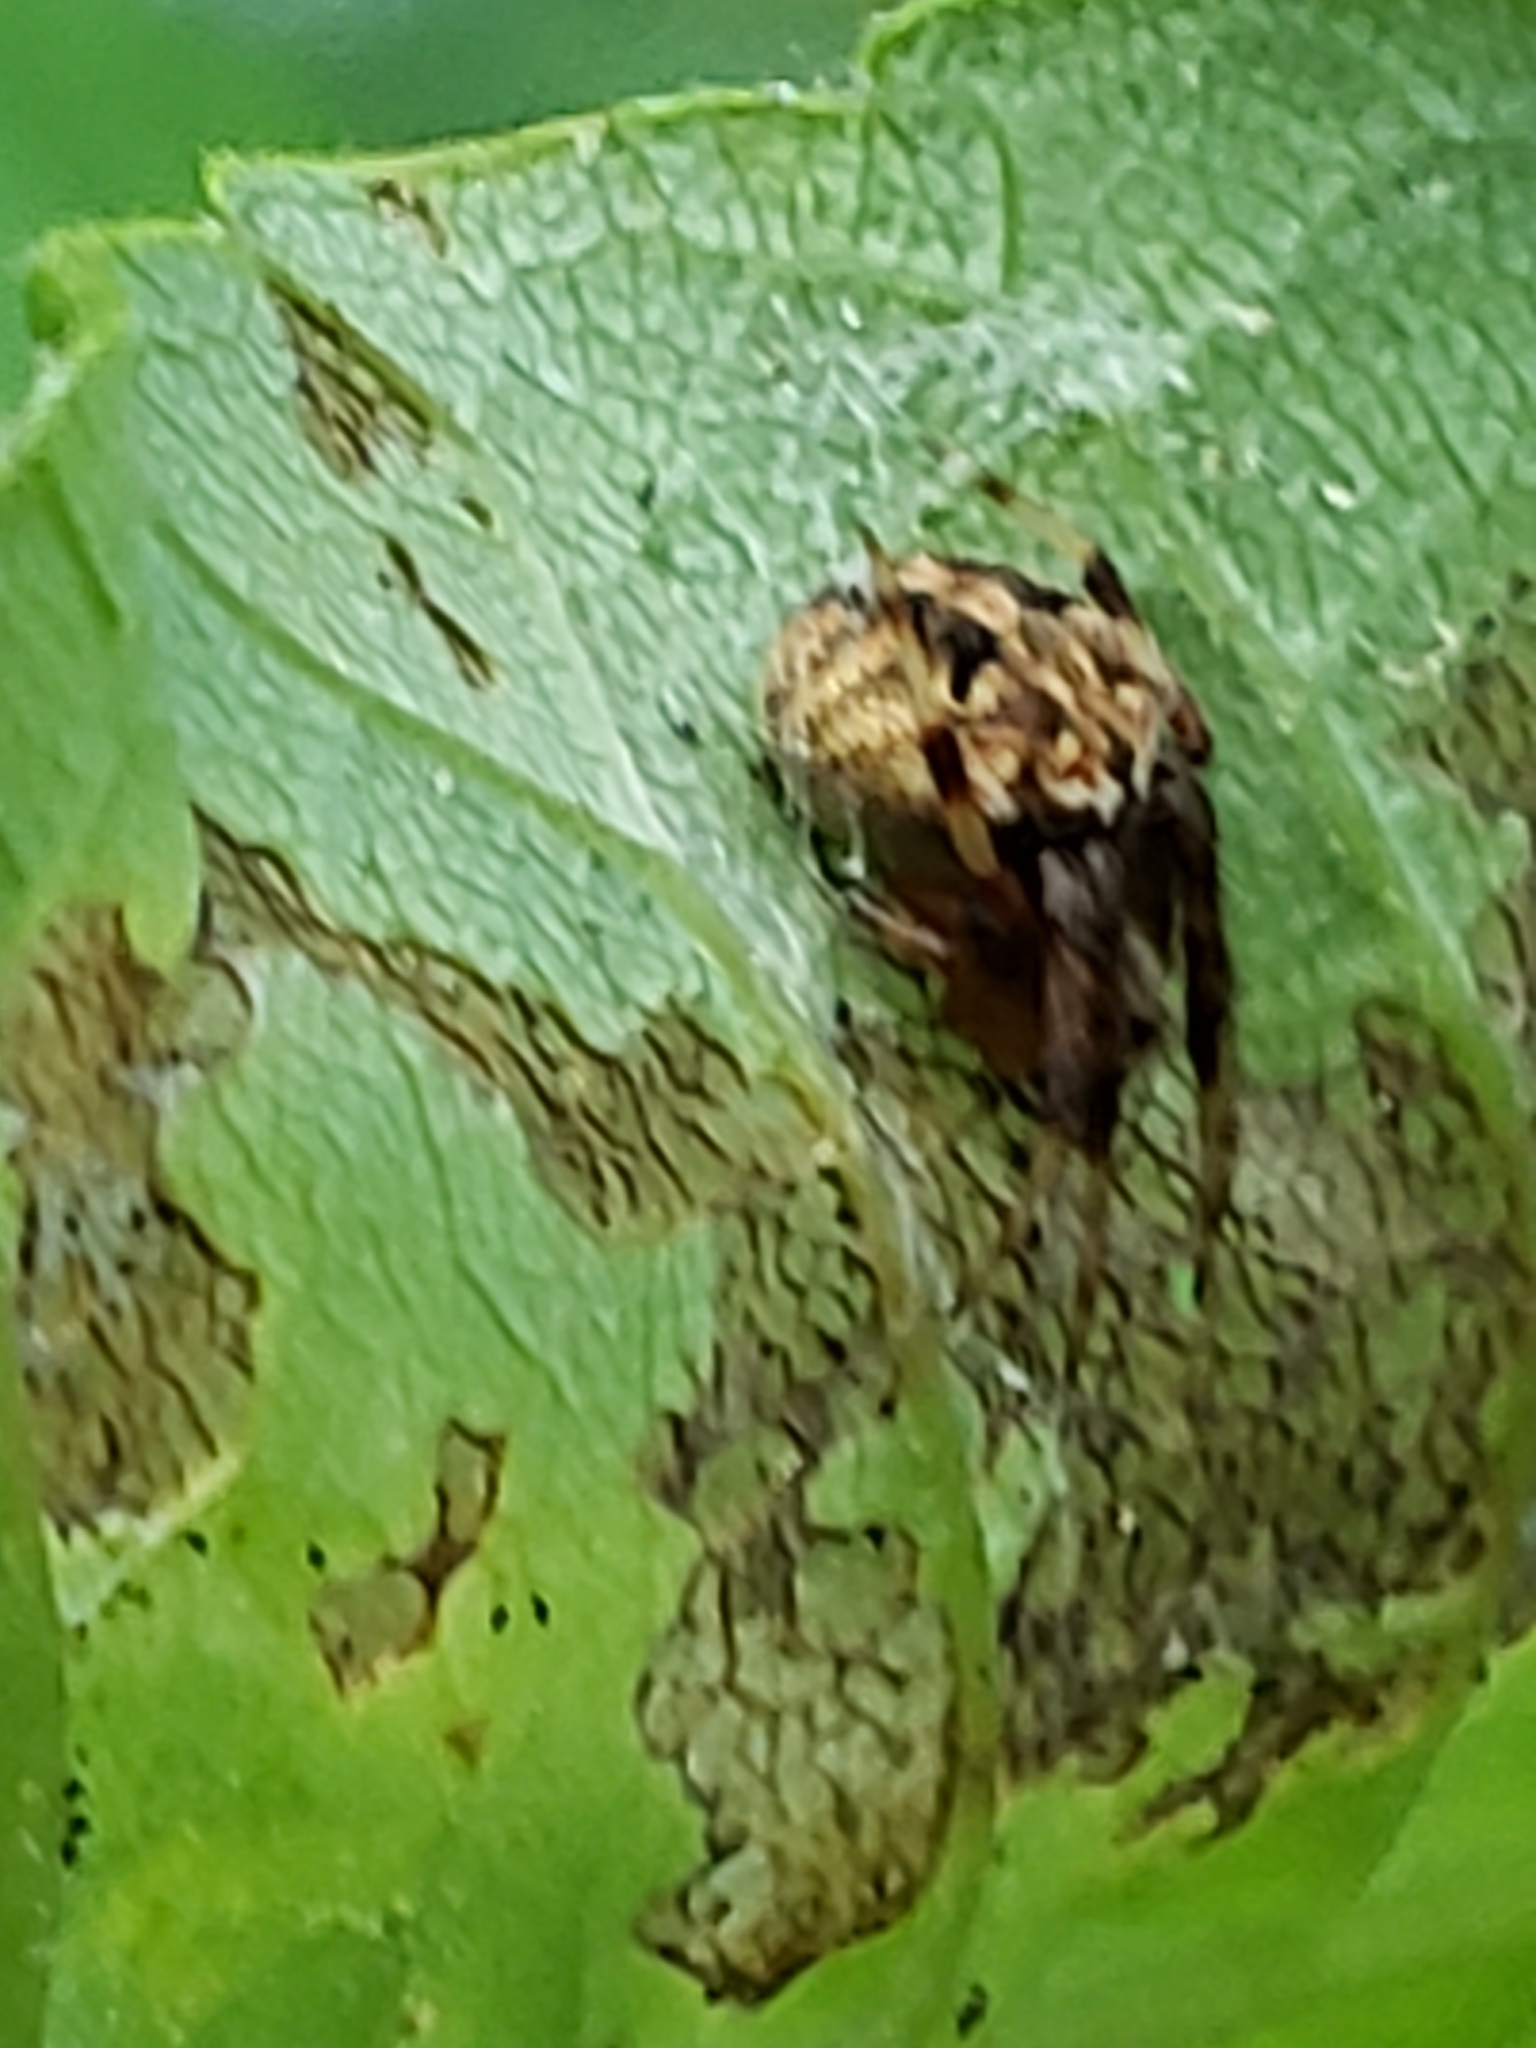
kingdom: Animalia
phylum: Arthropoda
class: Arachnida
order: Araneae
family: Araneidae
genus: Neoscona
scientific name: Neoscona arabesca
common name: Orb weavers
